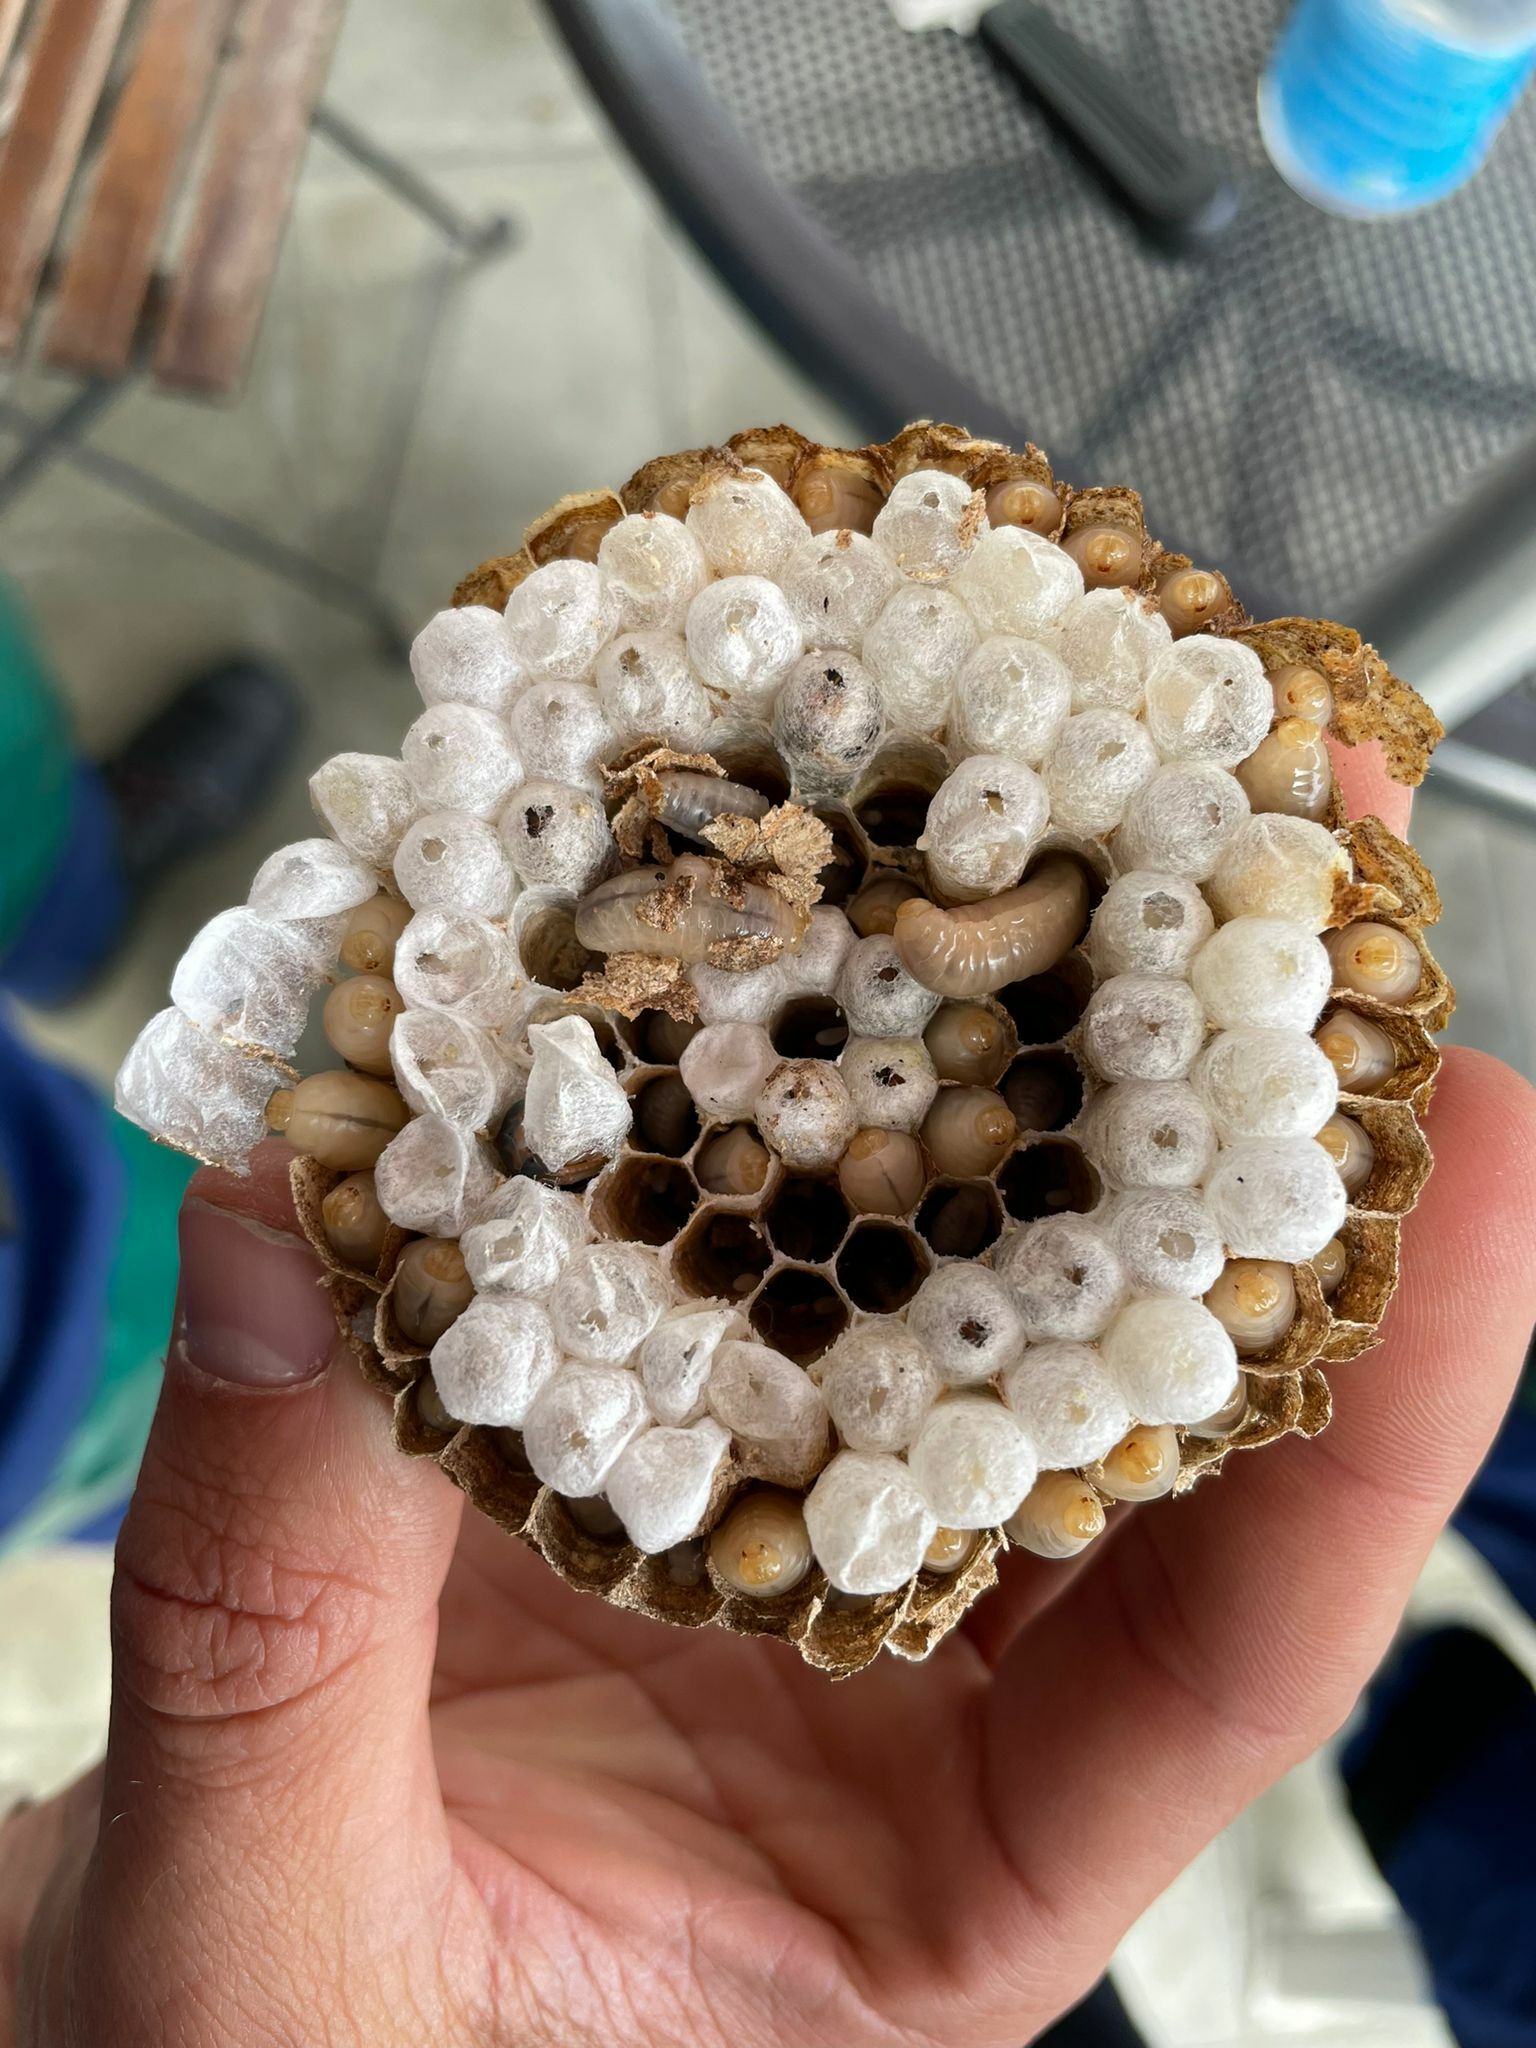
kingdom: Animalia
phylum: Arthropoda
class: Insecta
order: Hymenoptera
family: Vespidae
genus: Vespa
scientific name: Vespa velutina
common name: Asian hornet
